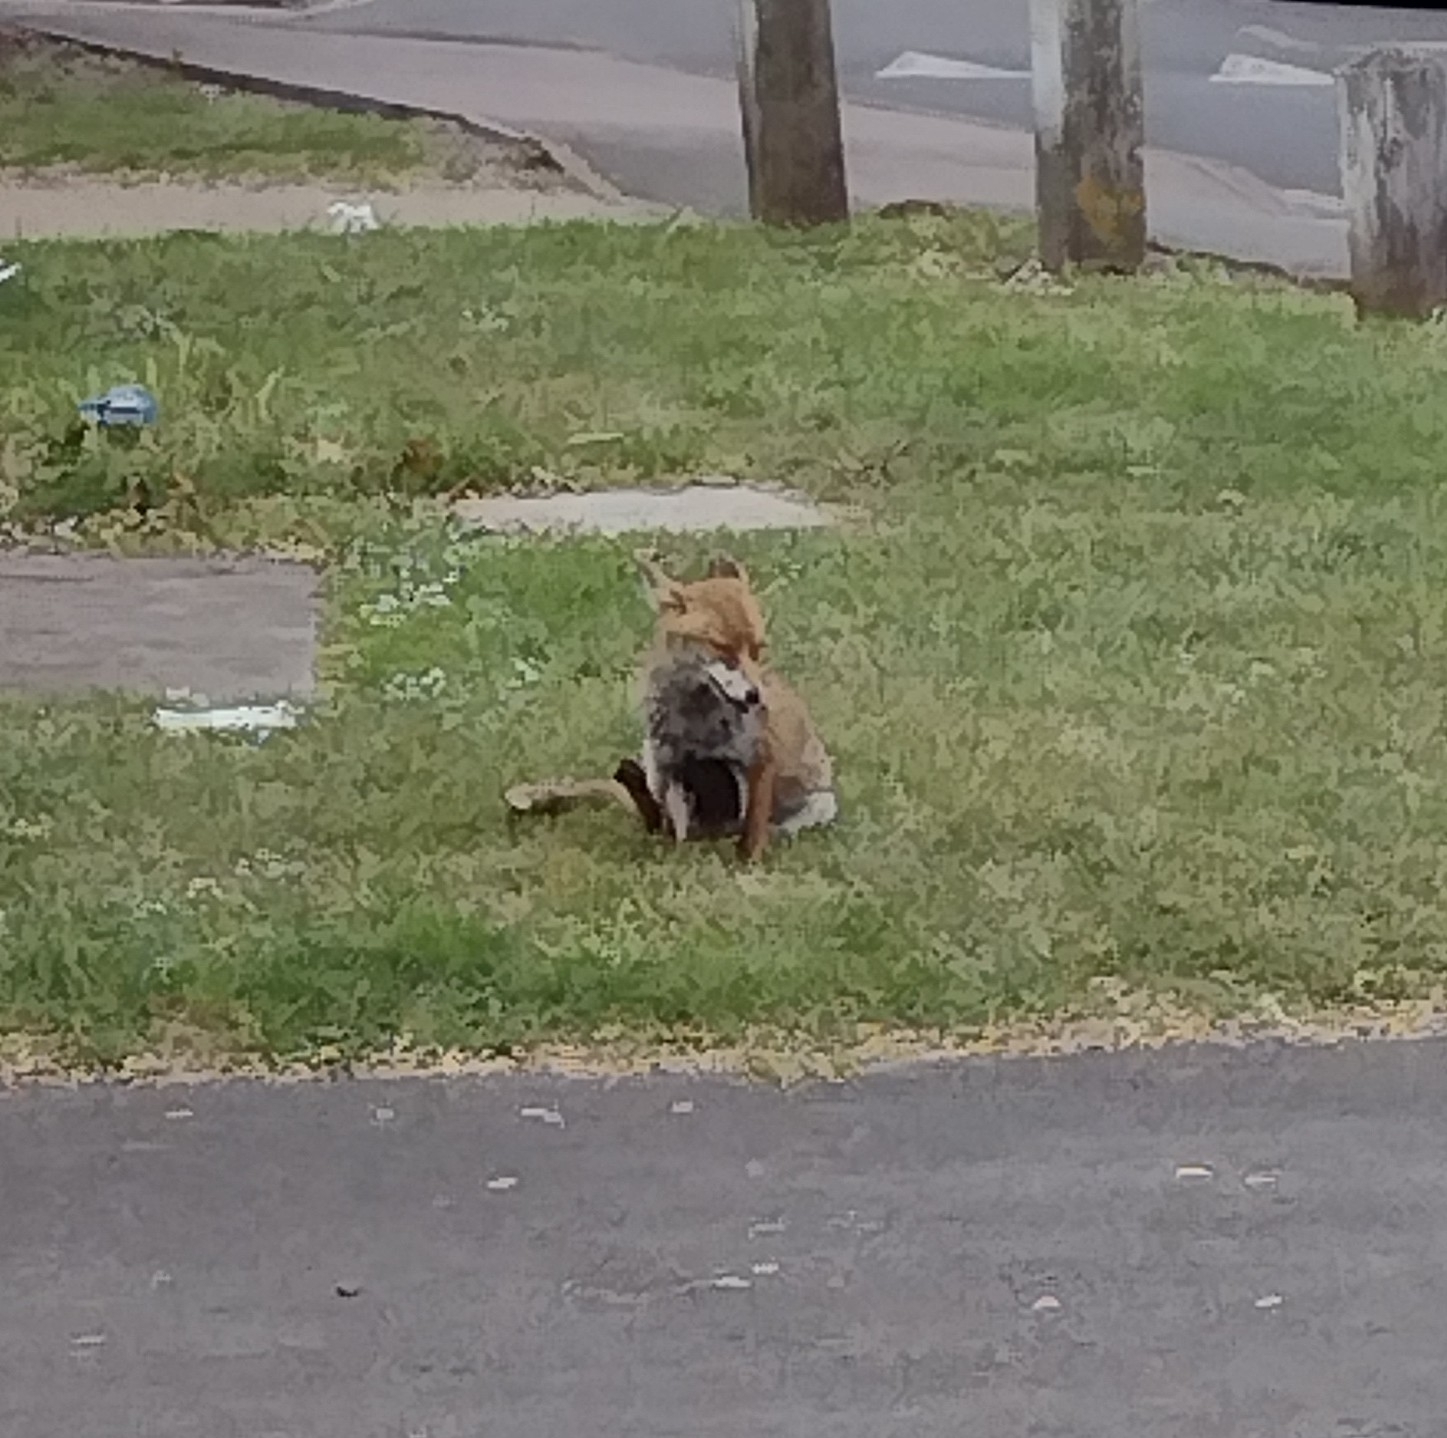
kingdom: Animalia
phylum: Chordata
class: Mammalia
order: Carnivora
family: Canidae
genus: Vulpes
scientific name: Vulpes vulpes
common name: Red fox
